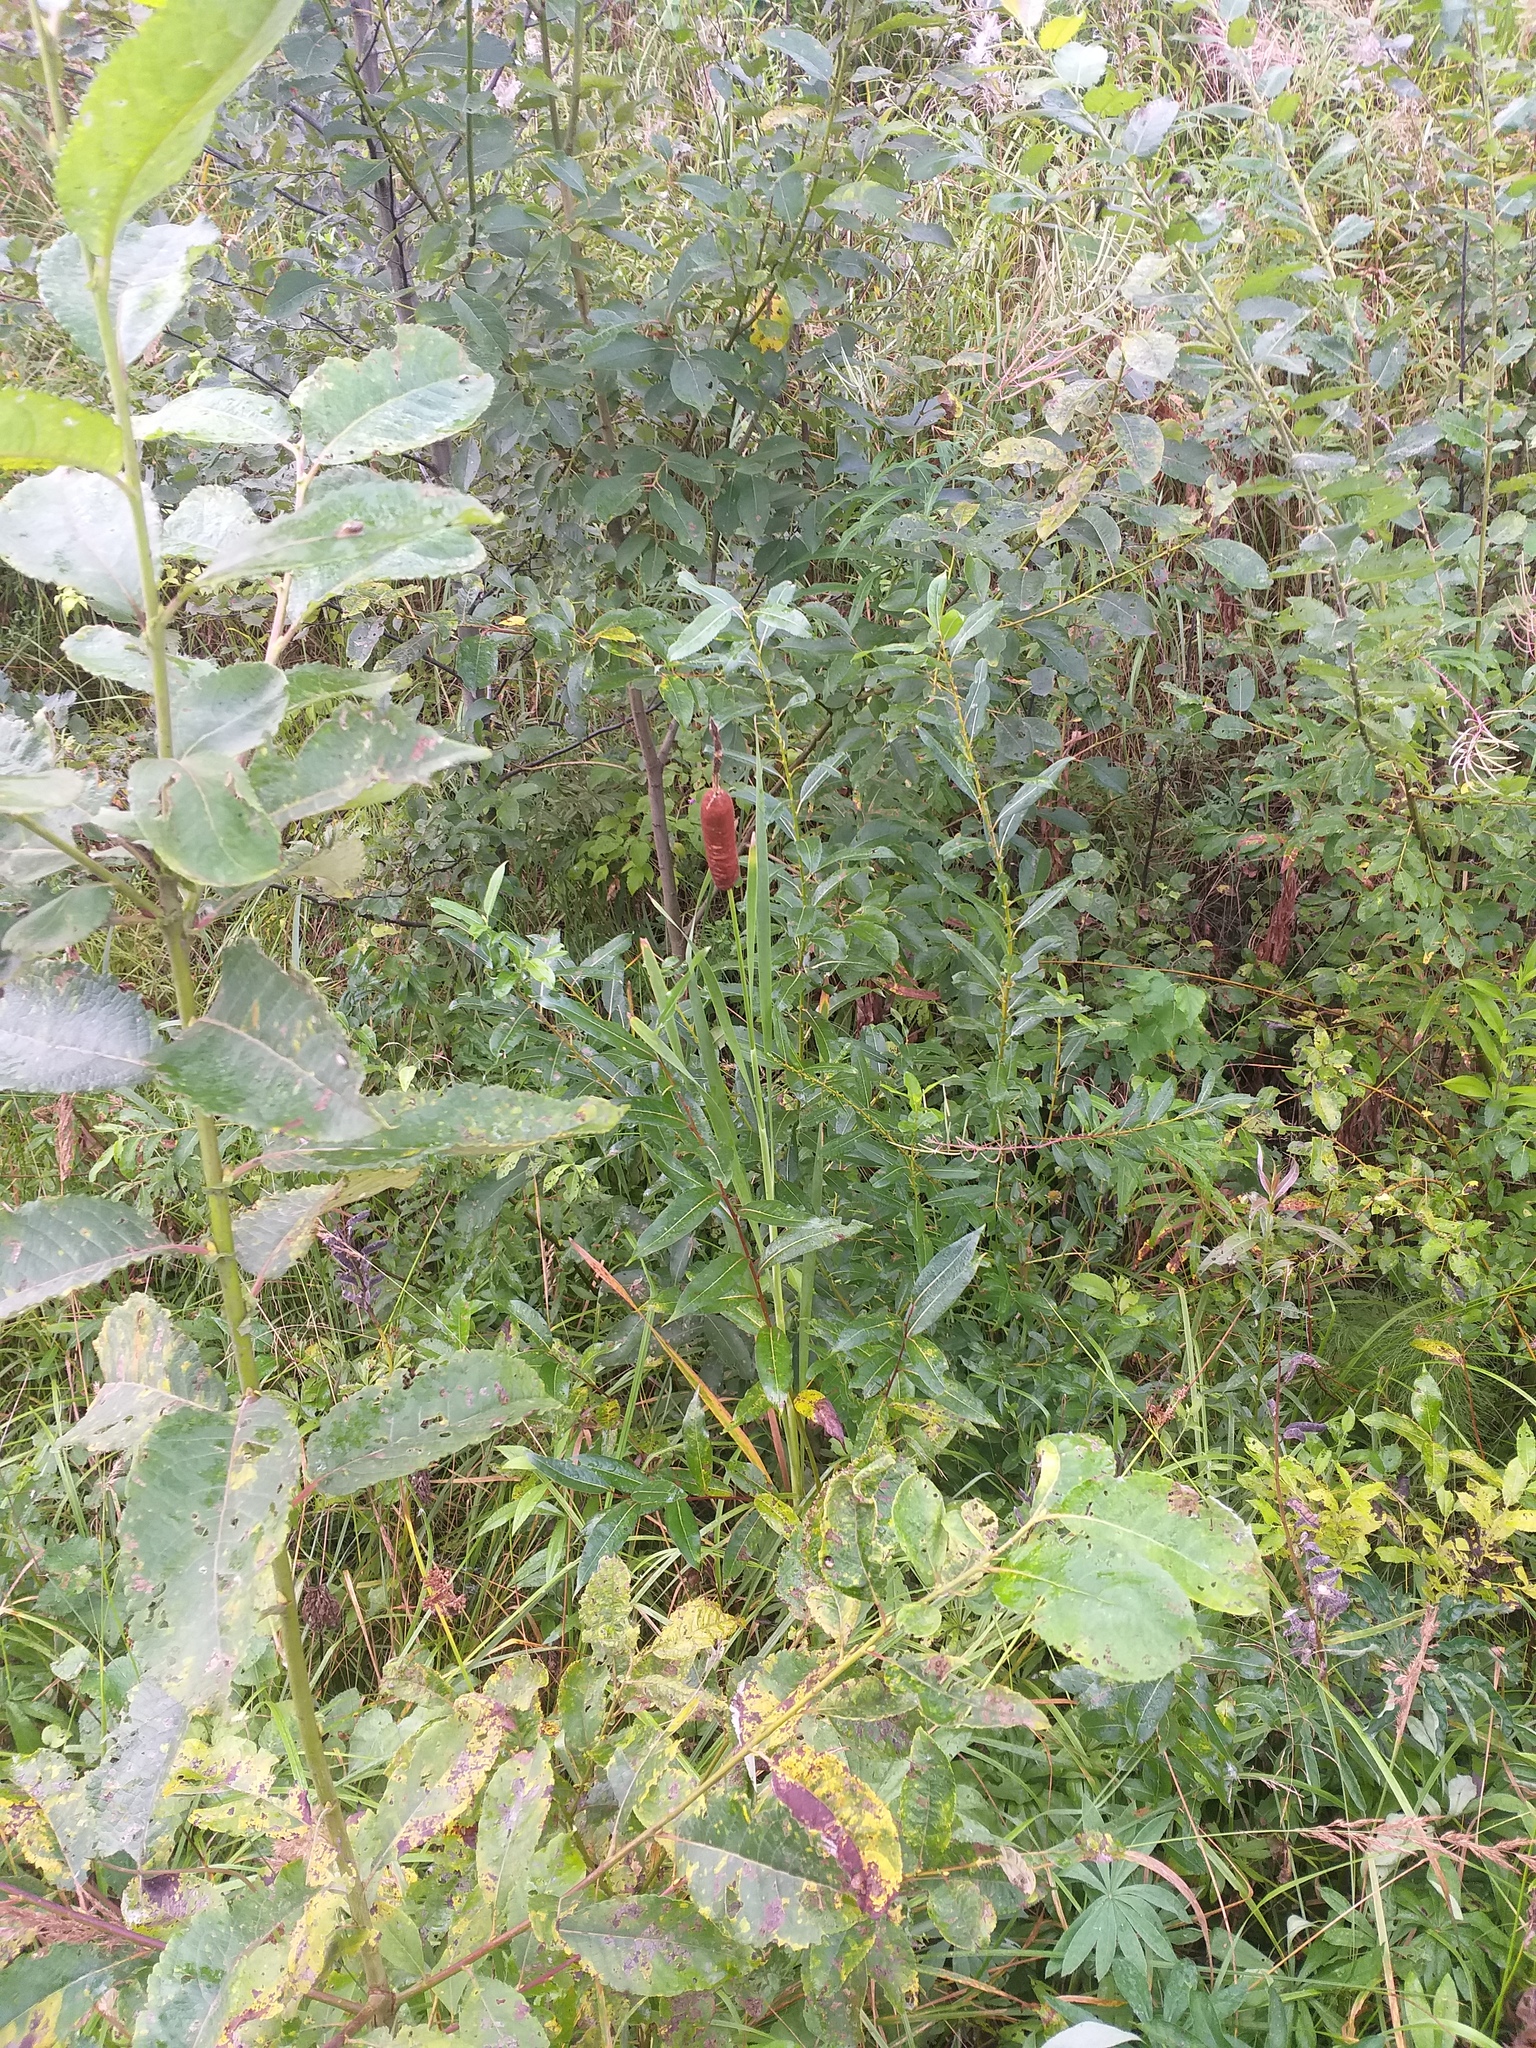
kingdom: Plantae
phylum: Tracheophyta
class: Liliopsida
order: Poales
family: Typhaceae
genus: Typha
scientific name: Typha latifolia
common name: Broadleaf cattail
